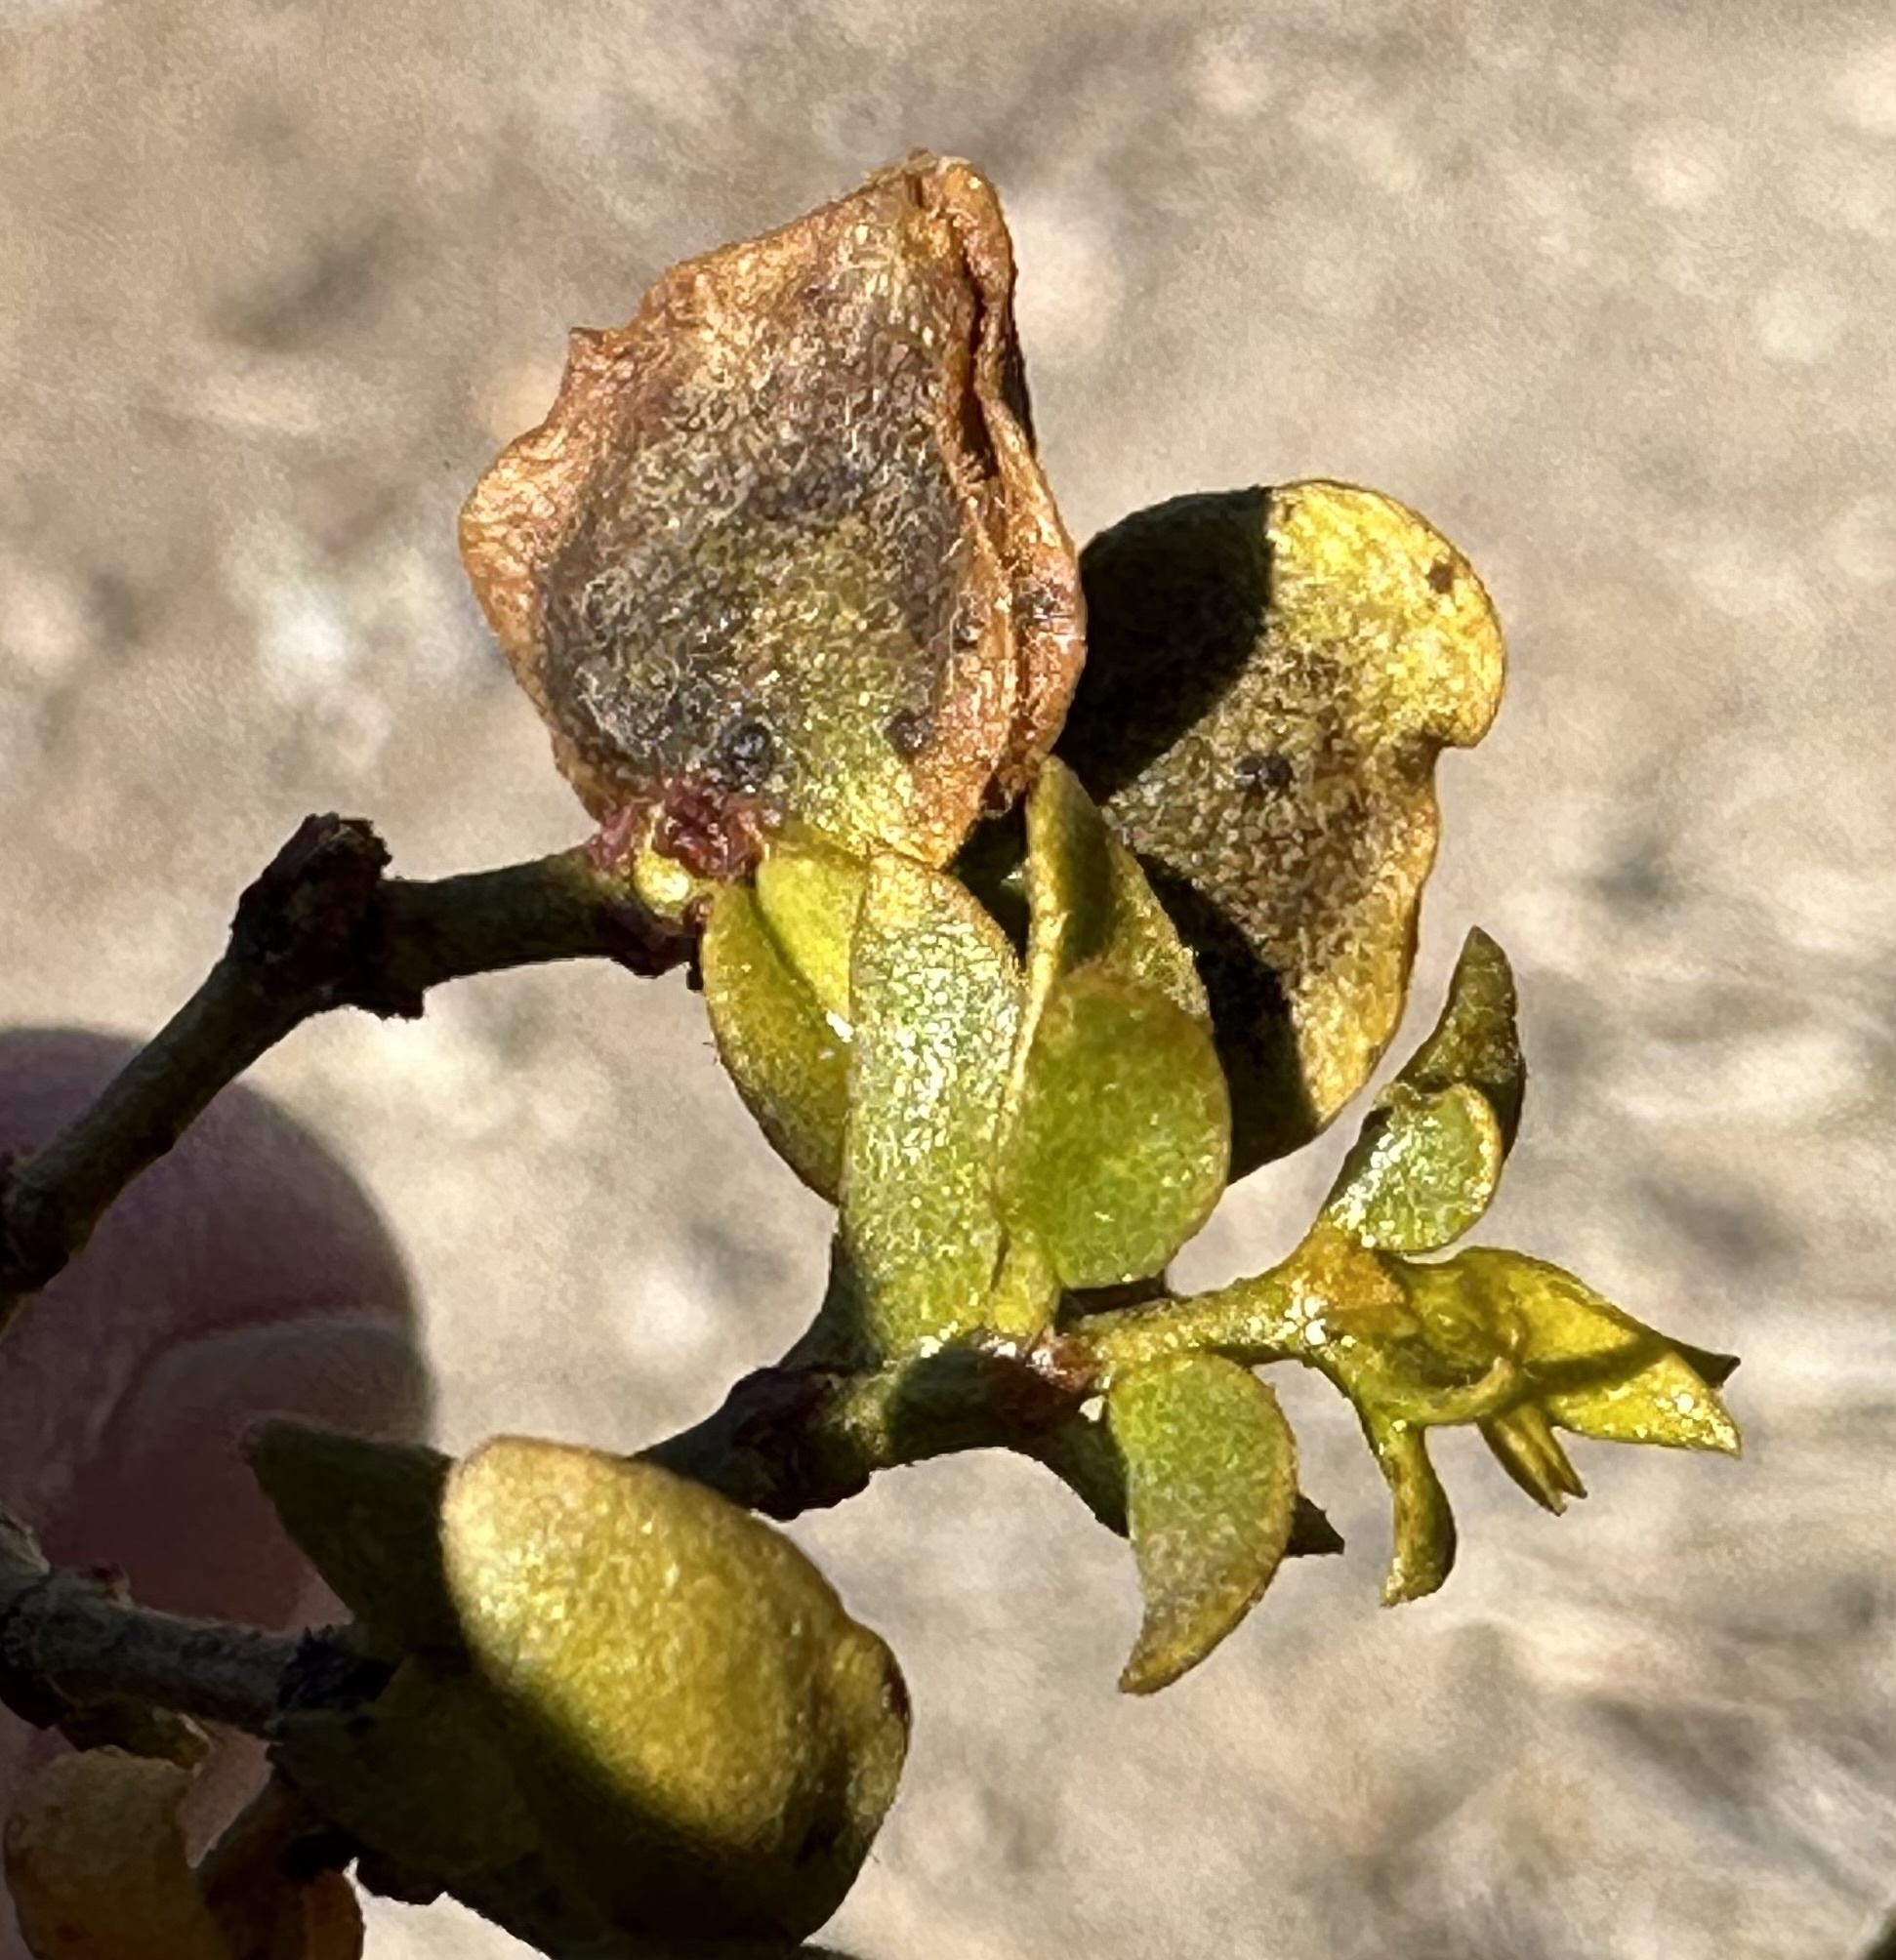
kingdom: Animalia
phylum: Arthropoda
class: Insecta
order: Diptera
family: Cecidomyiidae
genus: Contarinia
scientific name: Contarinia
